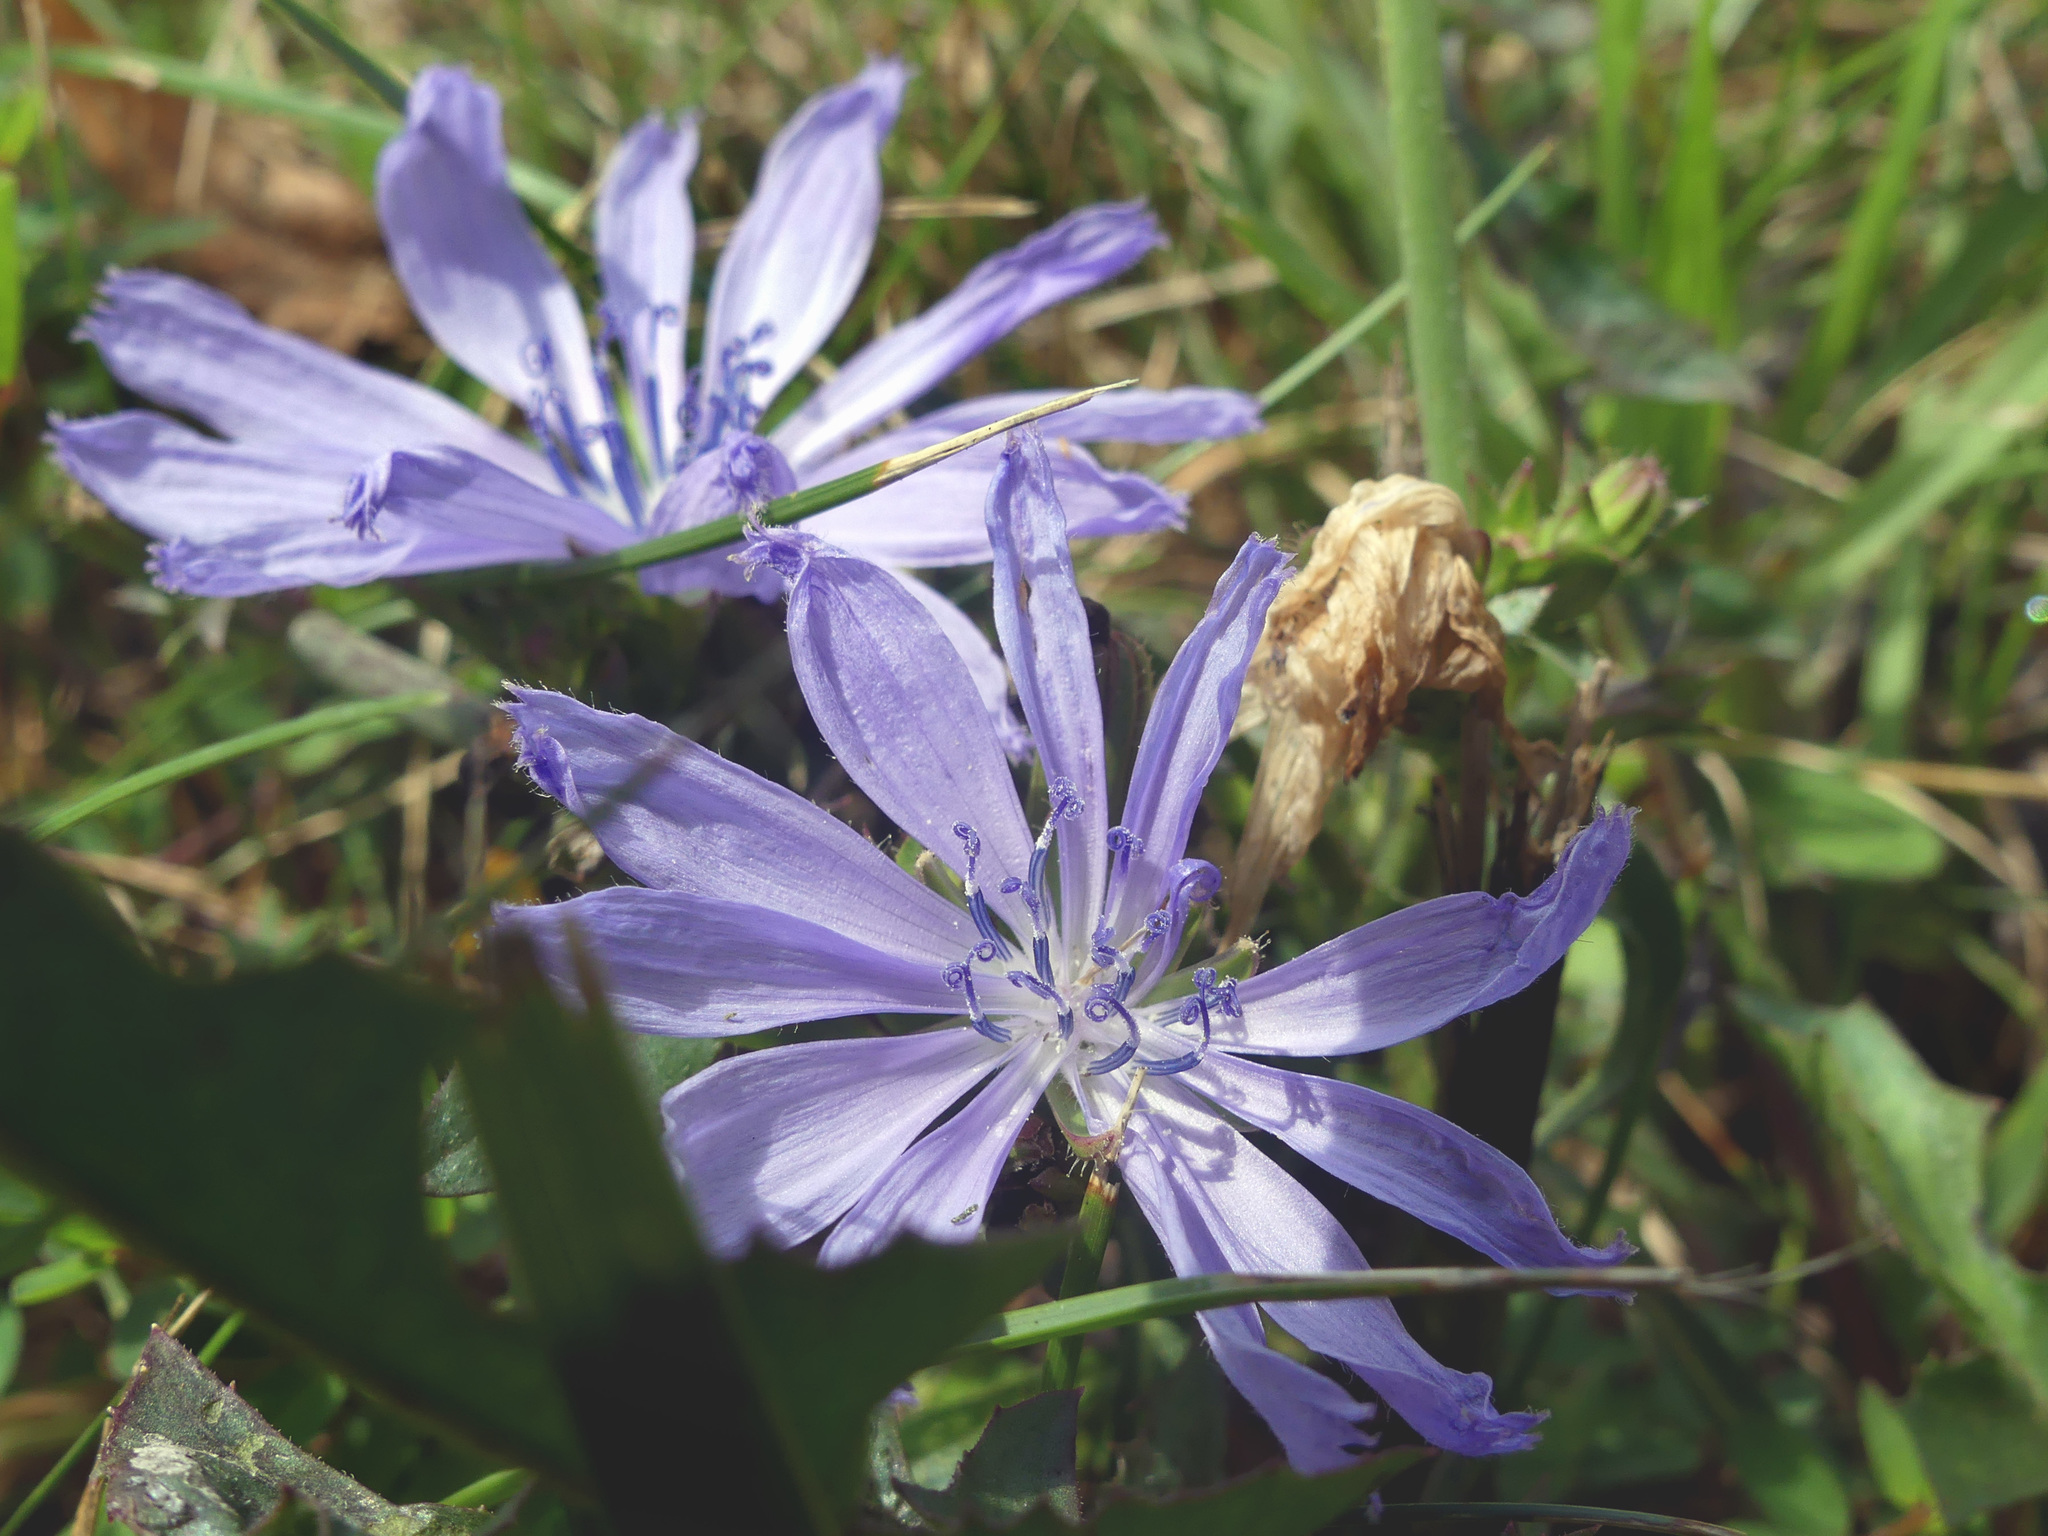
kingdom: Plantae
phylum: Tracheophyta
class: Magnoliopsida
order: Asterales
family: Asteraceae
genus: Cichorium
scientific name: Cichorium intybus
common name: Chicory
